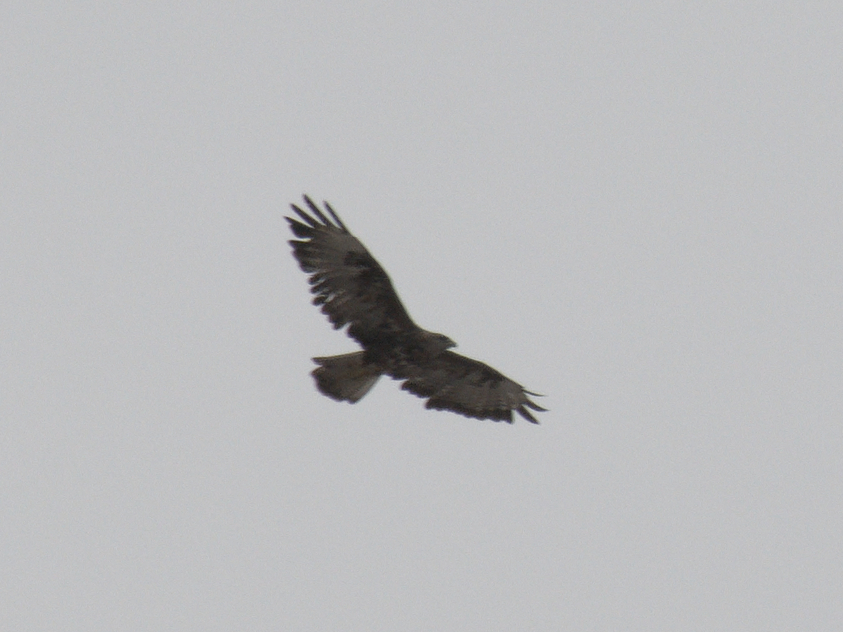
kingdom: Animalia
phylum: Chordata
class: Aves
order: Accipitriformes
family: Accipitridae
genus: Buteo
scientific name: Buteo buteo
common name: Common buzzard
